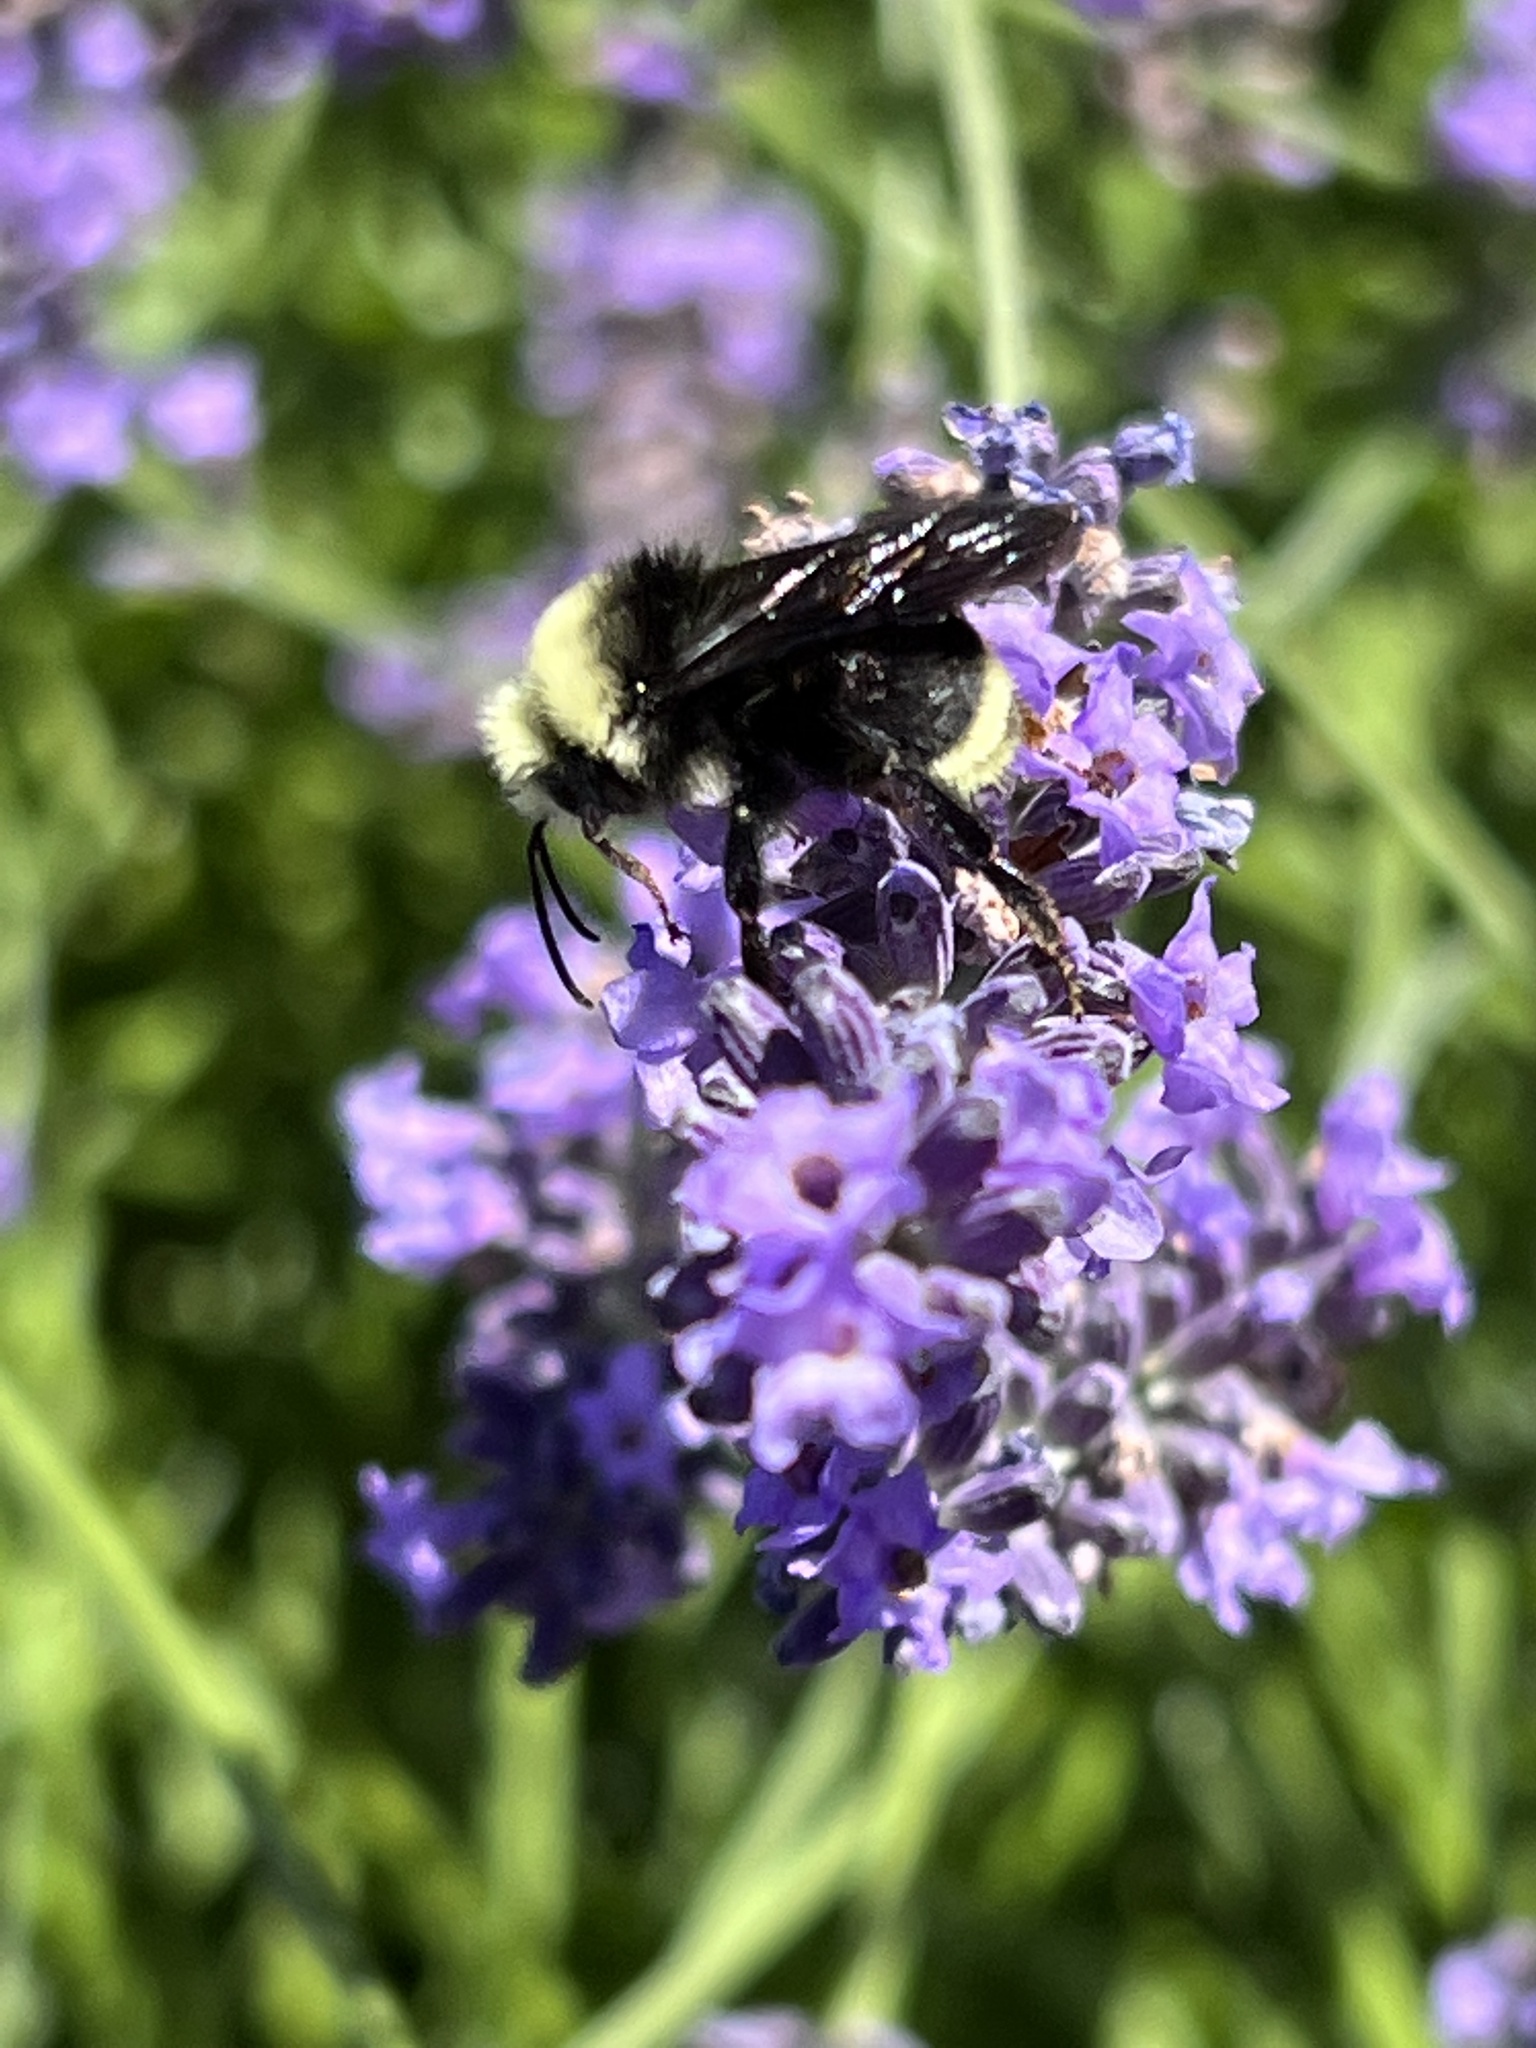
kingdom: Animalia
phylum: Arthropoda
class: Insecta
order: Hymenoptera
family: Apidae
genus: Bombus
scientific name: Bombus vosnesenskii
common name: Vosnesensky bumble bee
